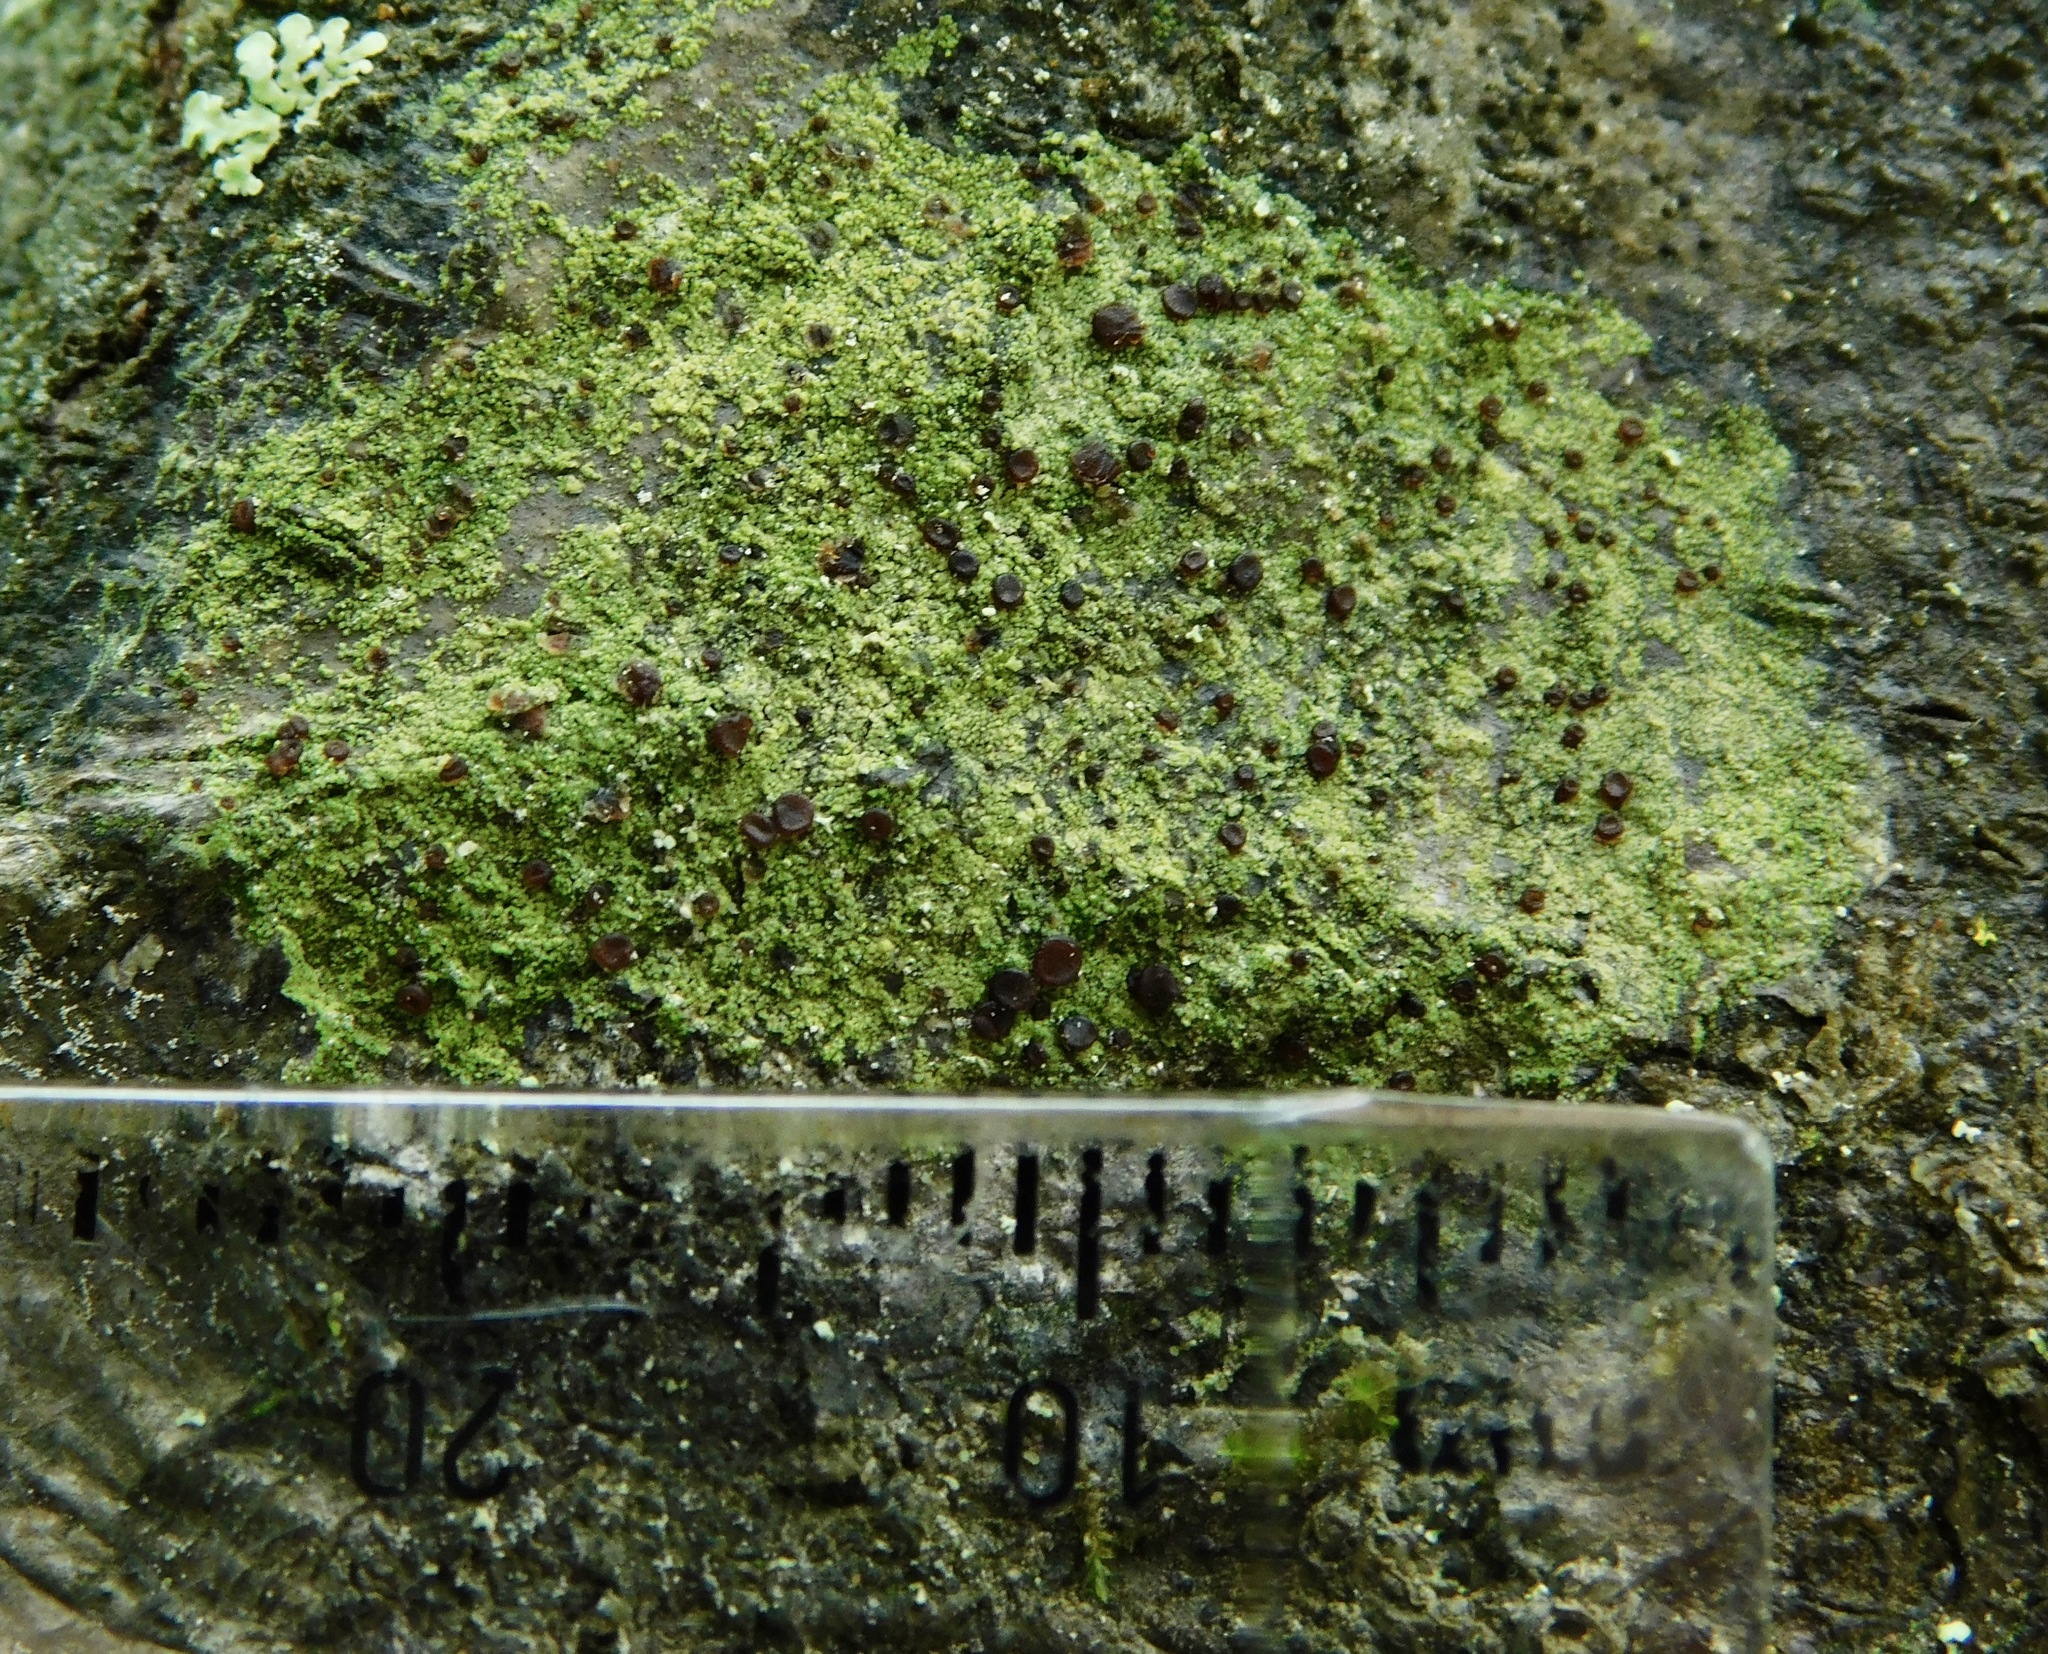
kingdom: Fungi
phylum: Ascomycota
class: Lecanoromycetes
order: Lecanorales
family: Ramalinaceae
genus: Bacidia
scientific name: Bacidia schweinitzii
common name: Surprise lichen
